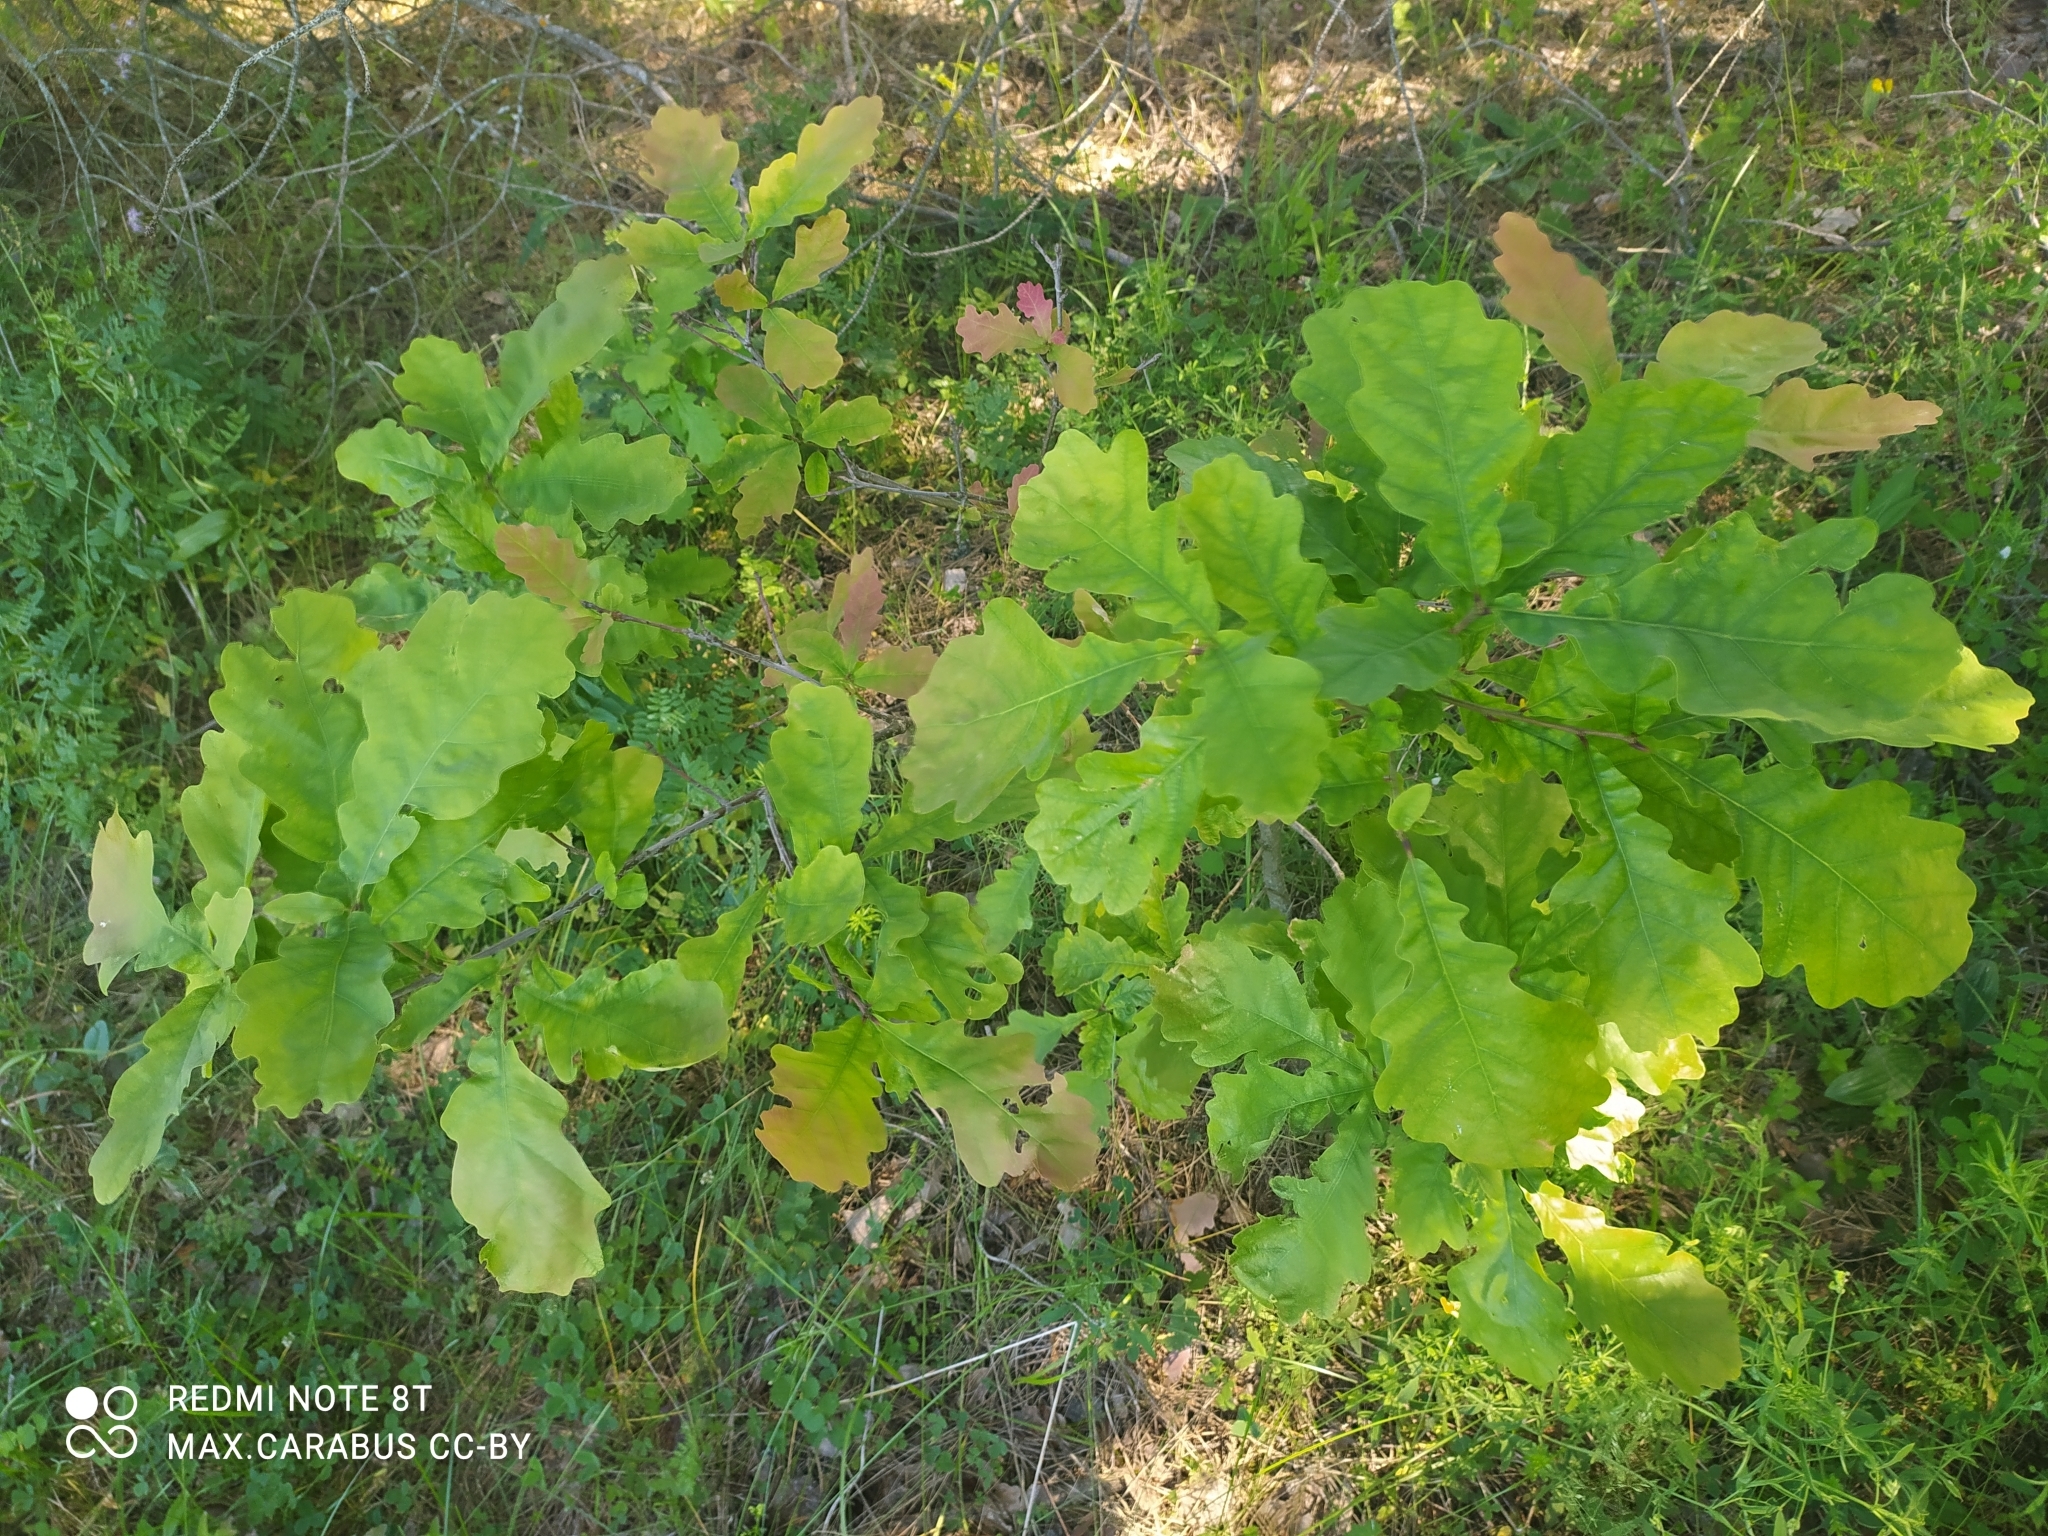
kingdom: Plantae
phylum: Tracheophyta
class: Magnoliopsida
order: Fagales
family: Fagaceae
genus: Quercus
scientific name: Quercus robur
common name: Pedunculate oak
